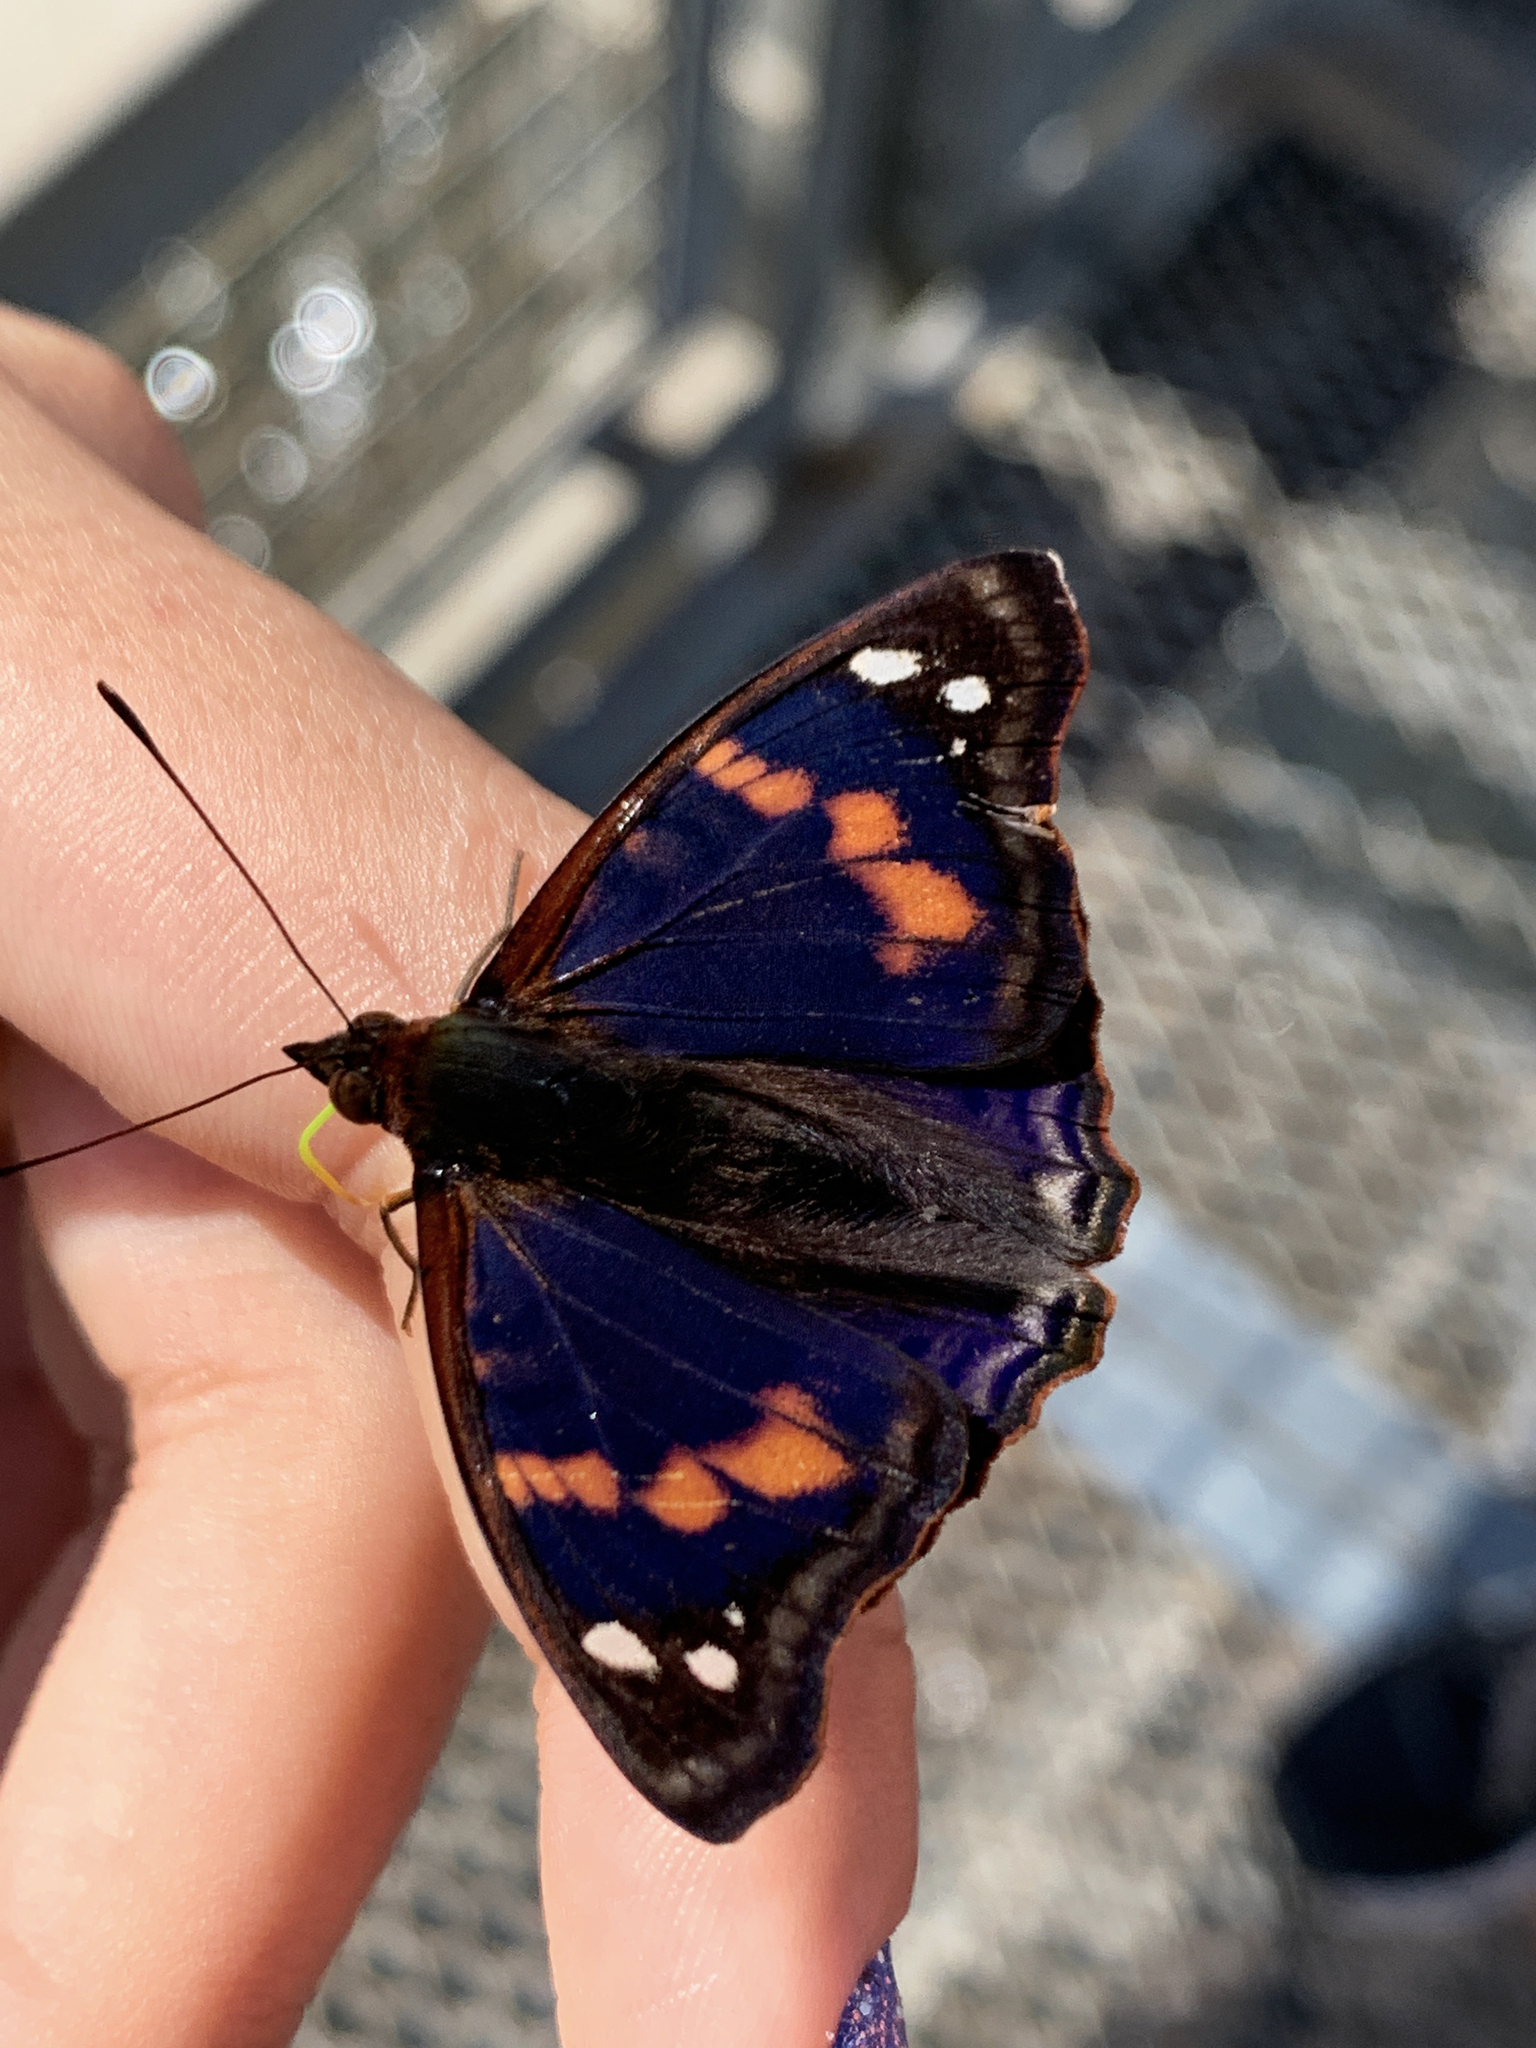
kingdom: Animalia
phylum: Arthropoda
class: Insecta
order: Lepidoptera
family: Nymphalidae
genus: Doxocopa
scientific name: Doxocopa agathina
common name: Agathina emperor
